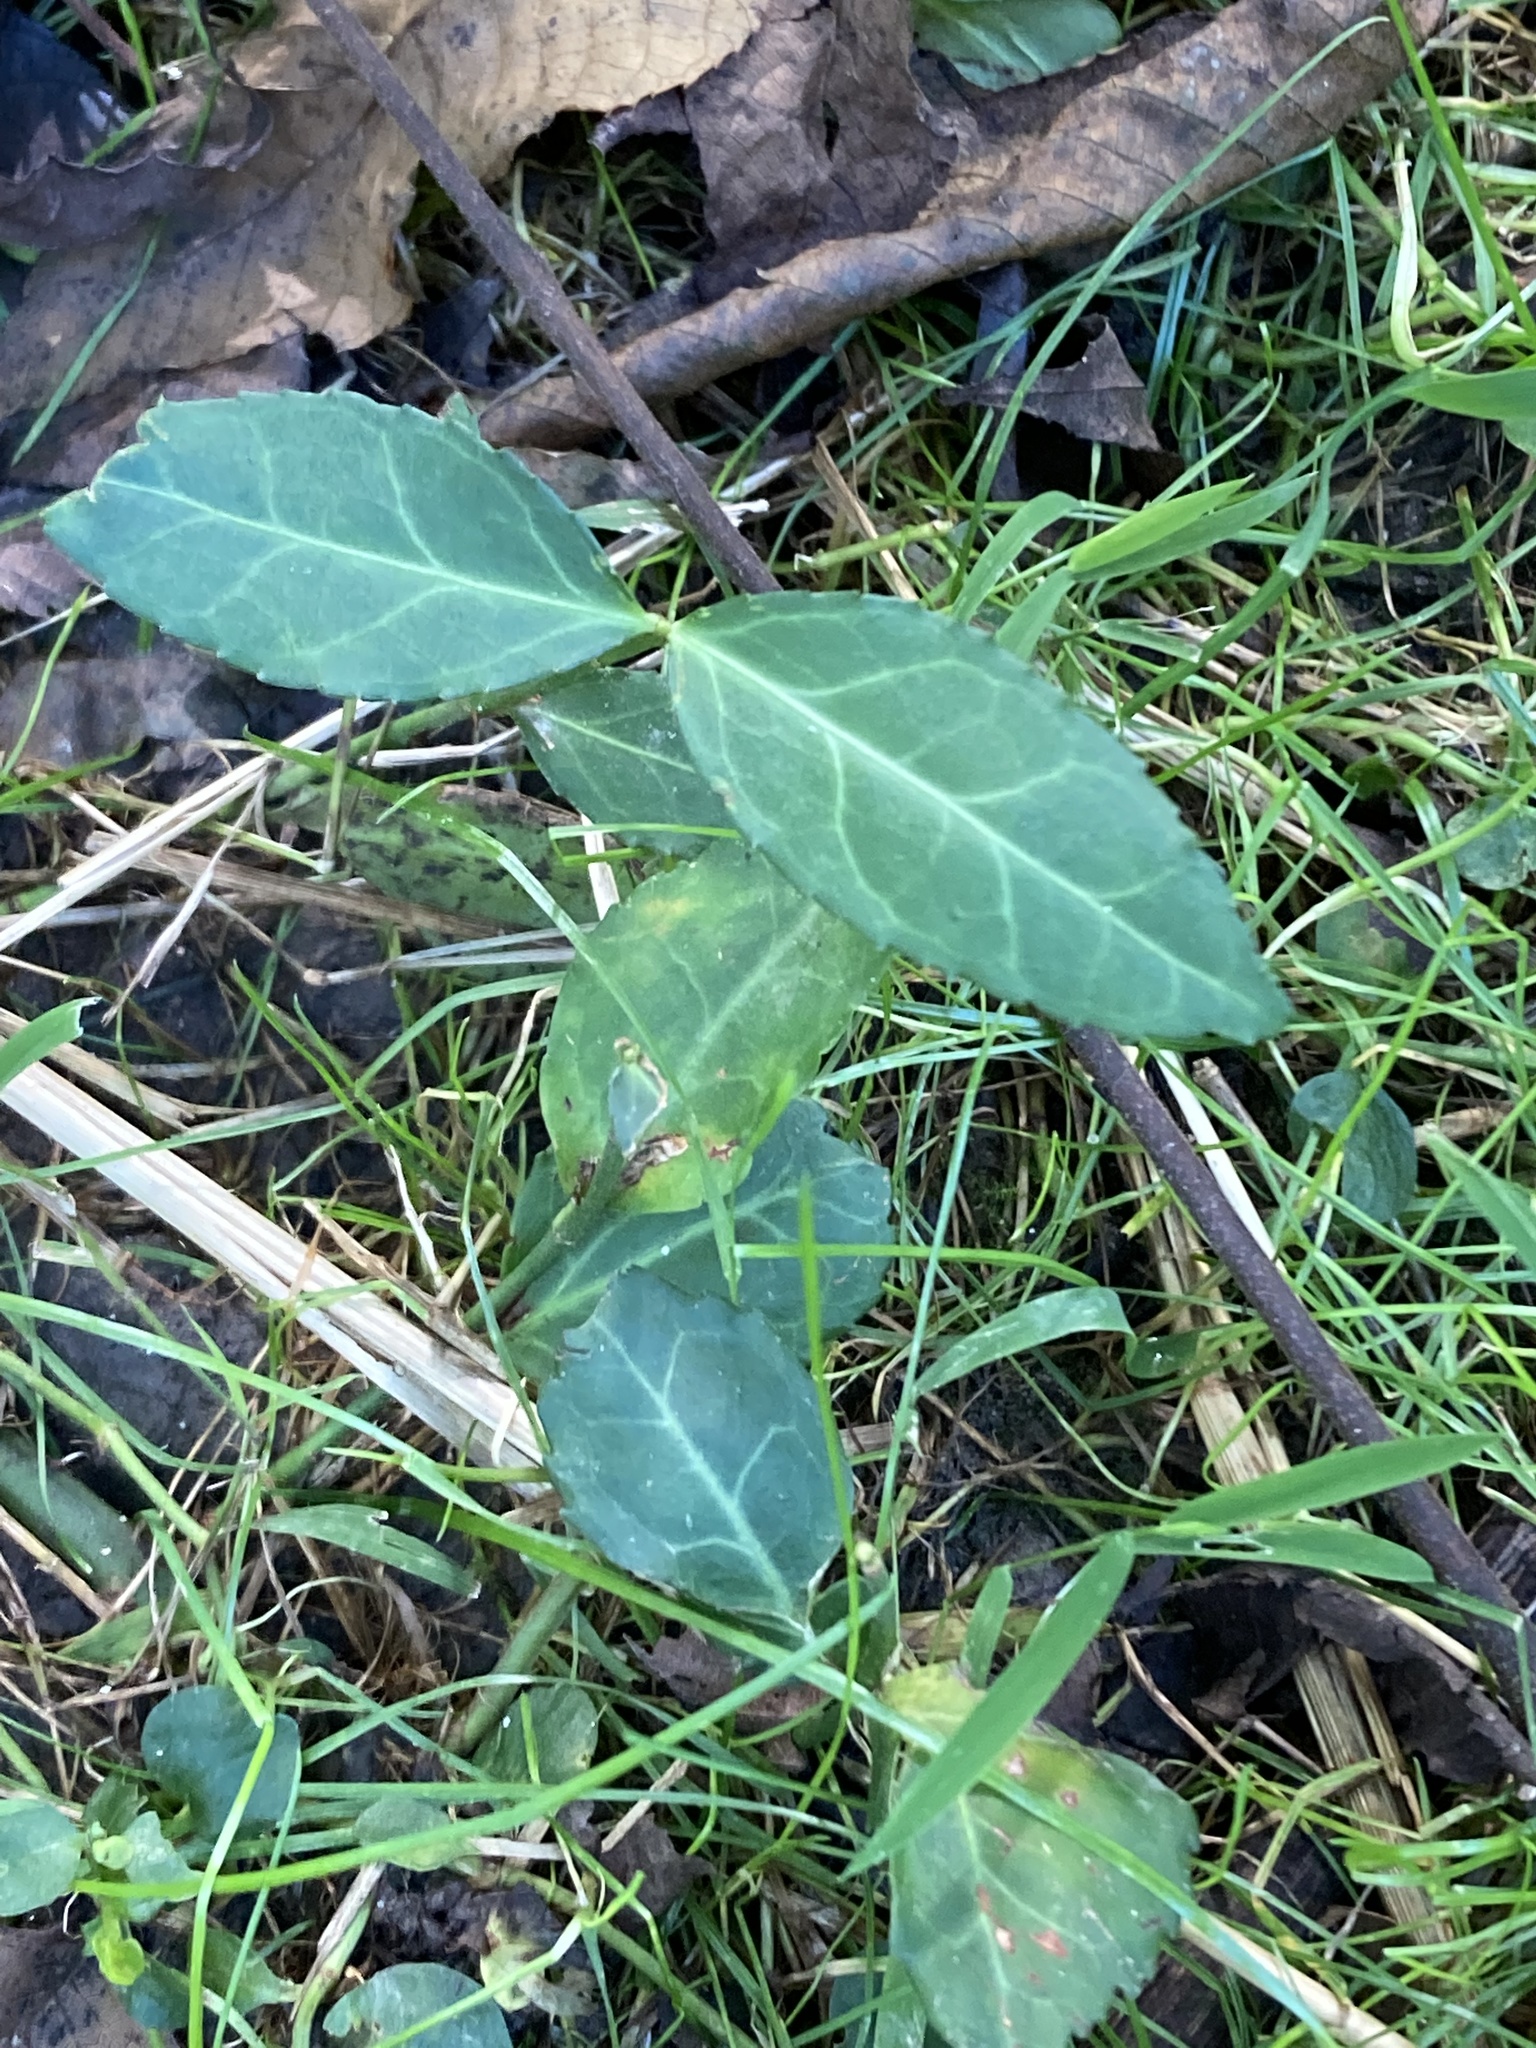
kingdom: Plantae
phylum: Tracheophyta
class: Magnoliopsida
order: Celastrales
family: Celastraceae
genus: Euonymus
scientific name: Euonymus fortunei
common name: Climbing euonymus
